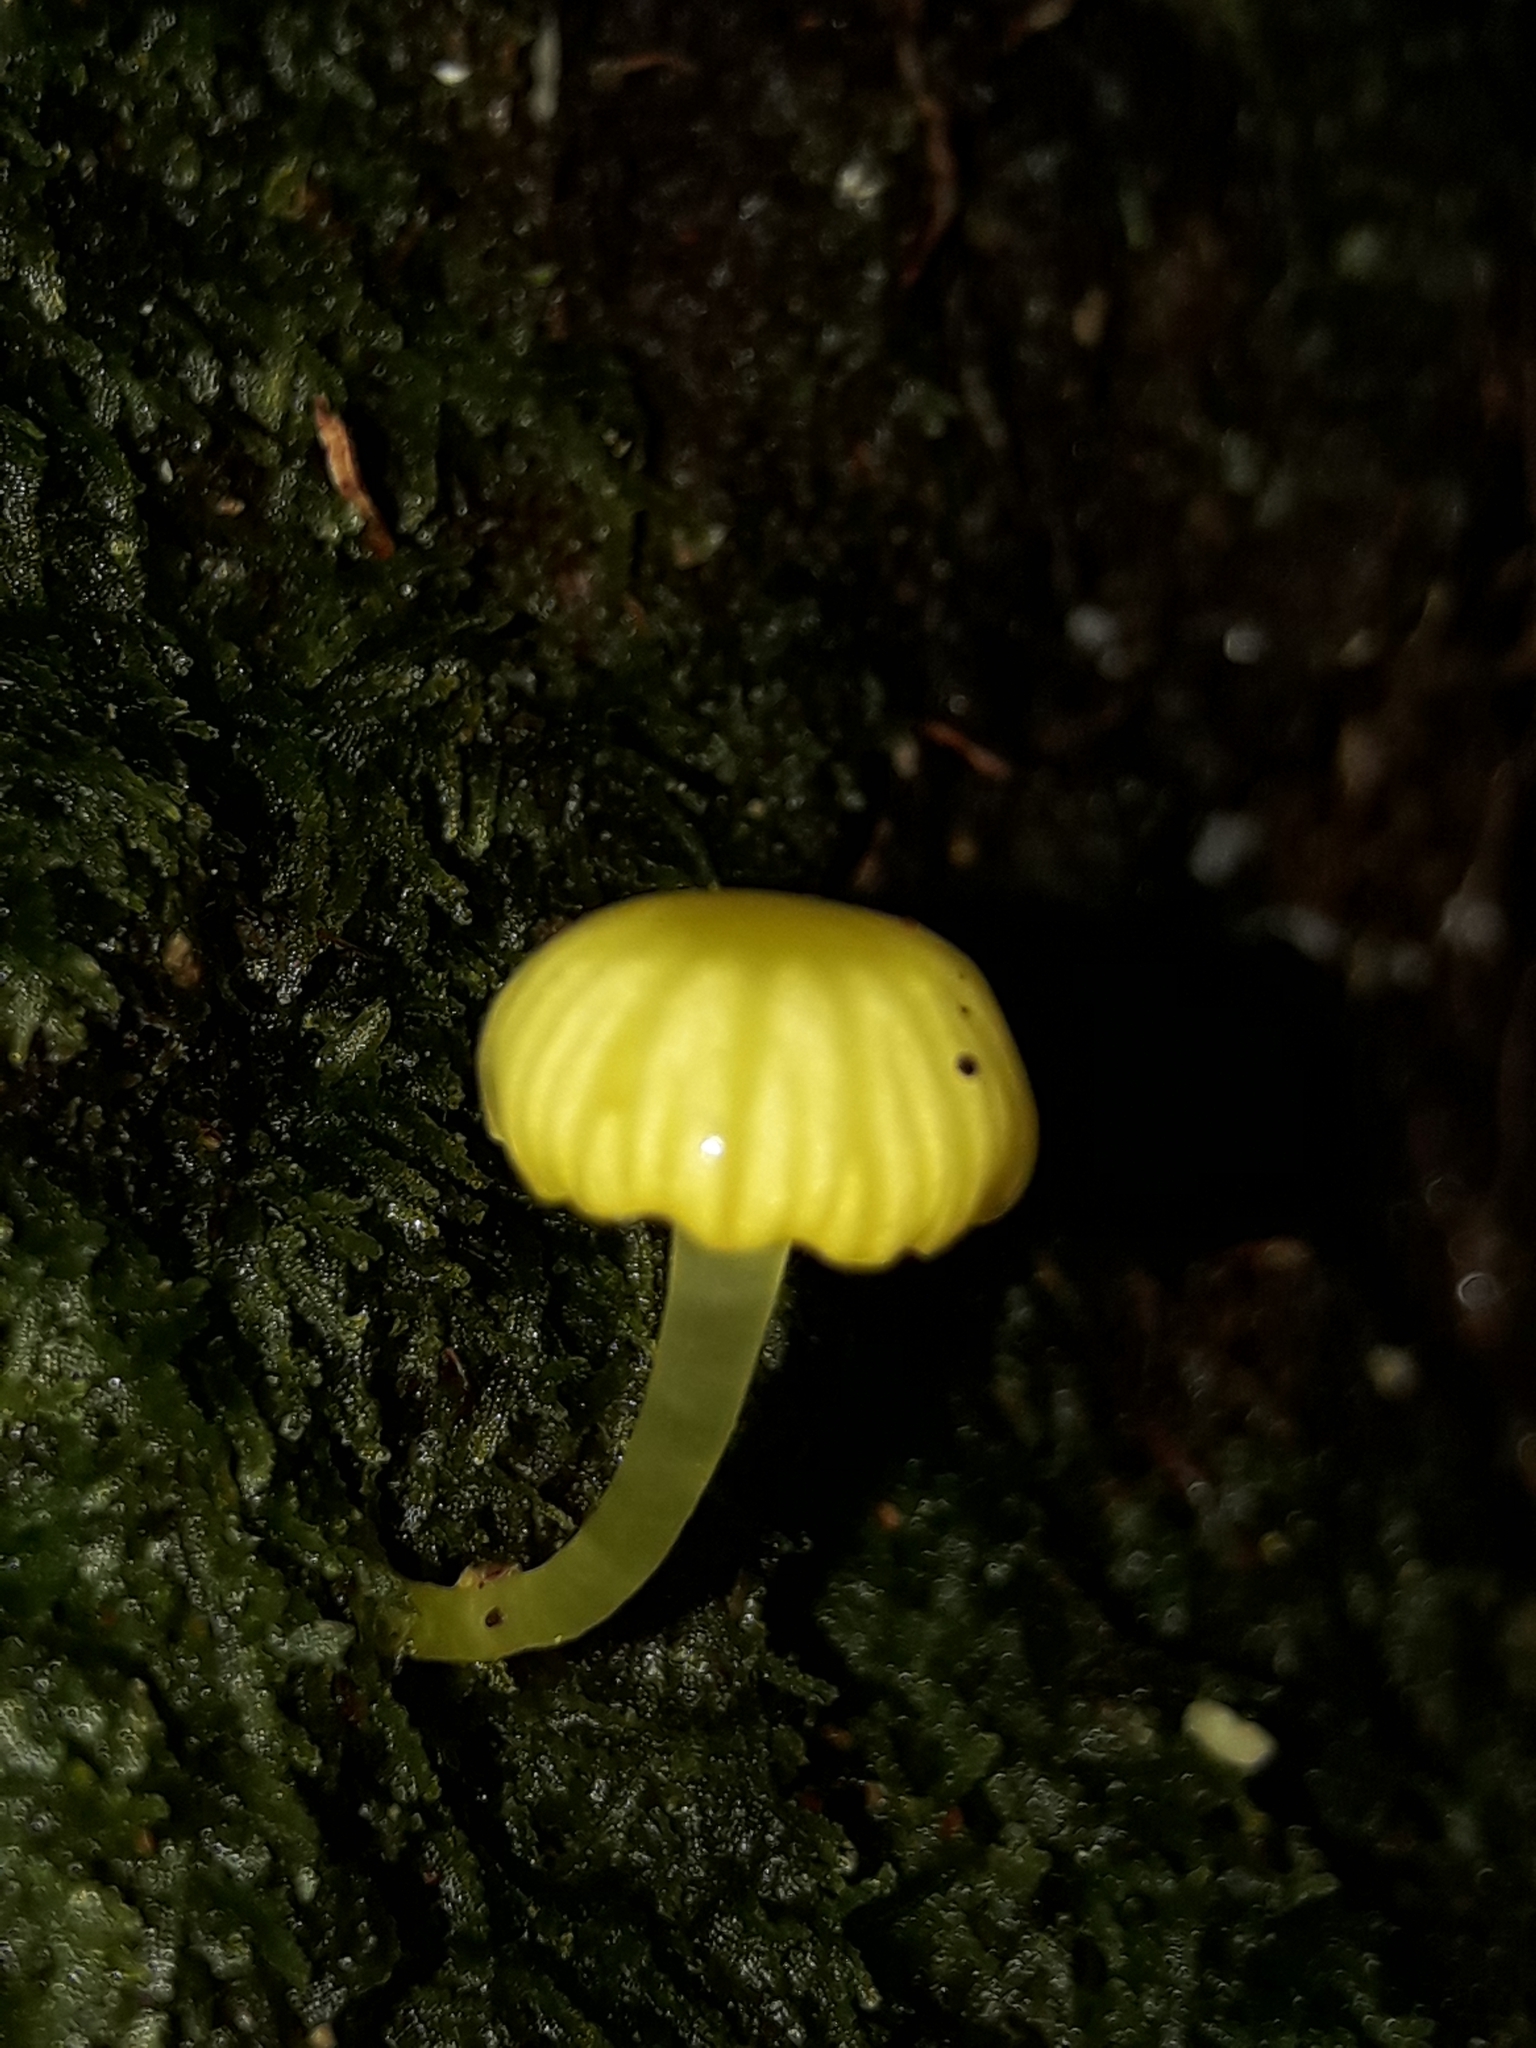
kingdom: Fungi
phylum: Basidiomycota
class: Agaricomycetes
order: Agaricales
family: Hygrophoraceae
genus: Gloioxanthomyces
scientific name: Gloioxanthomyces
